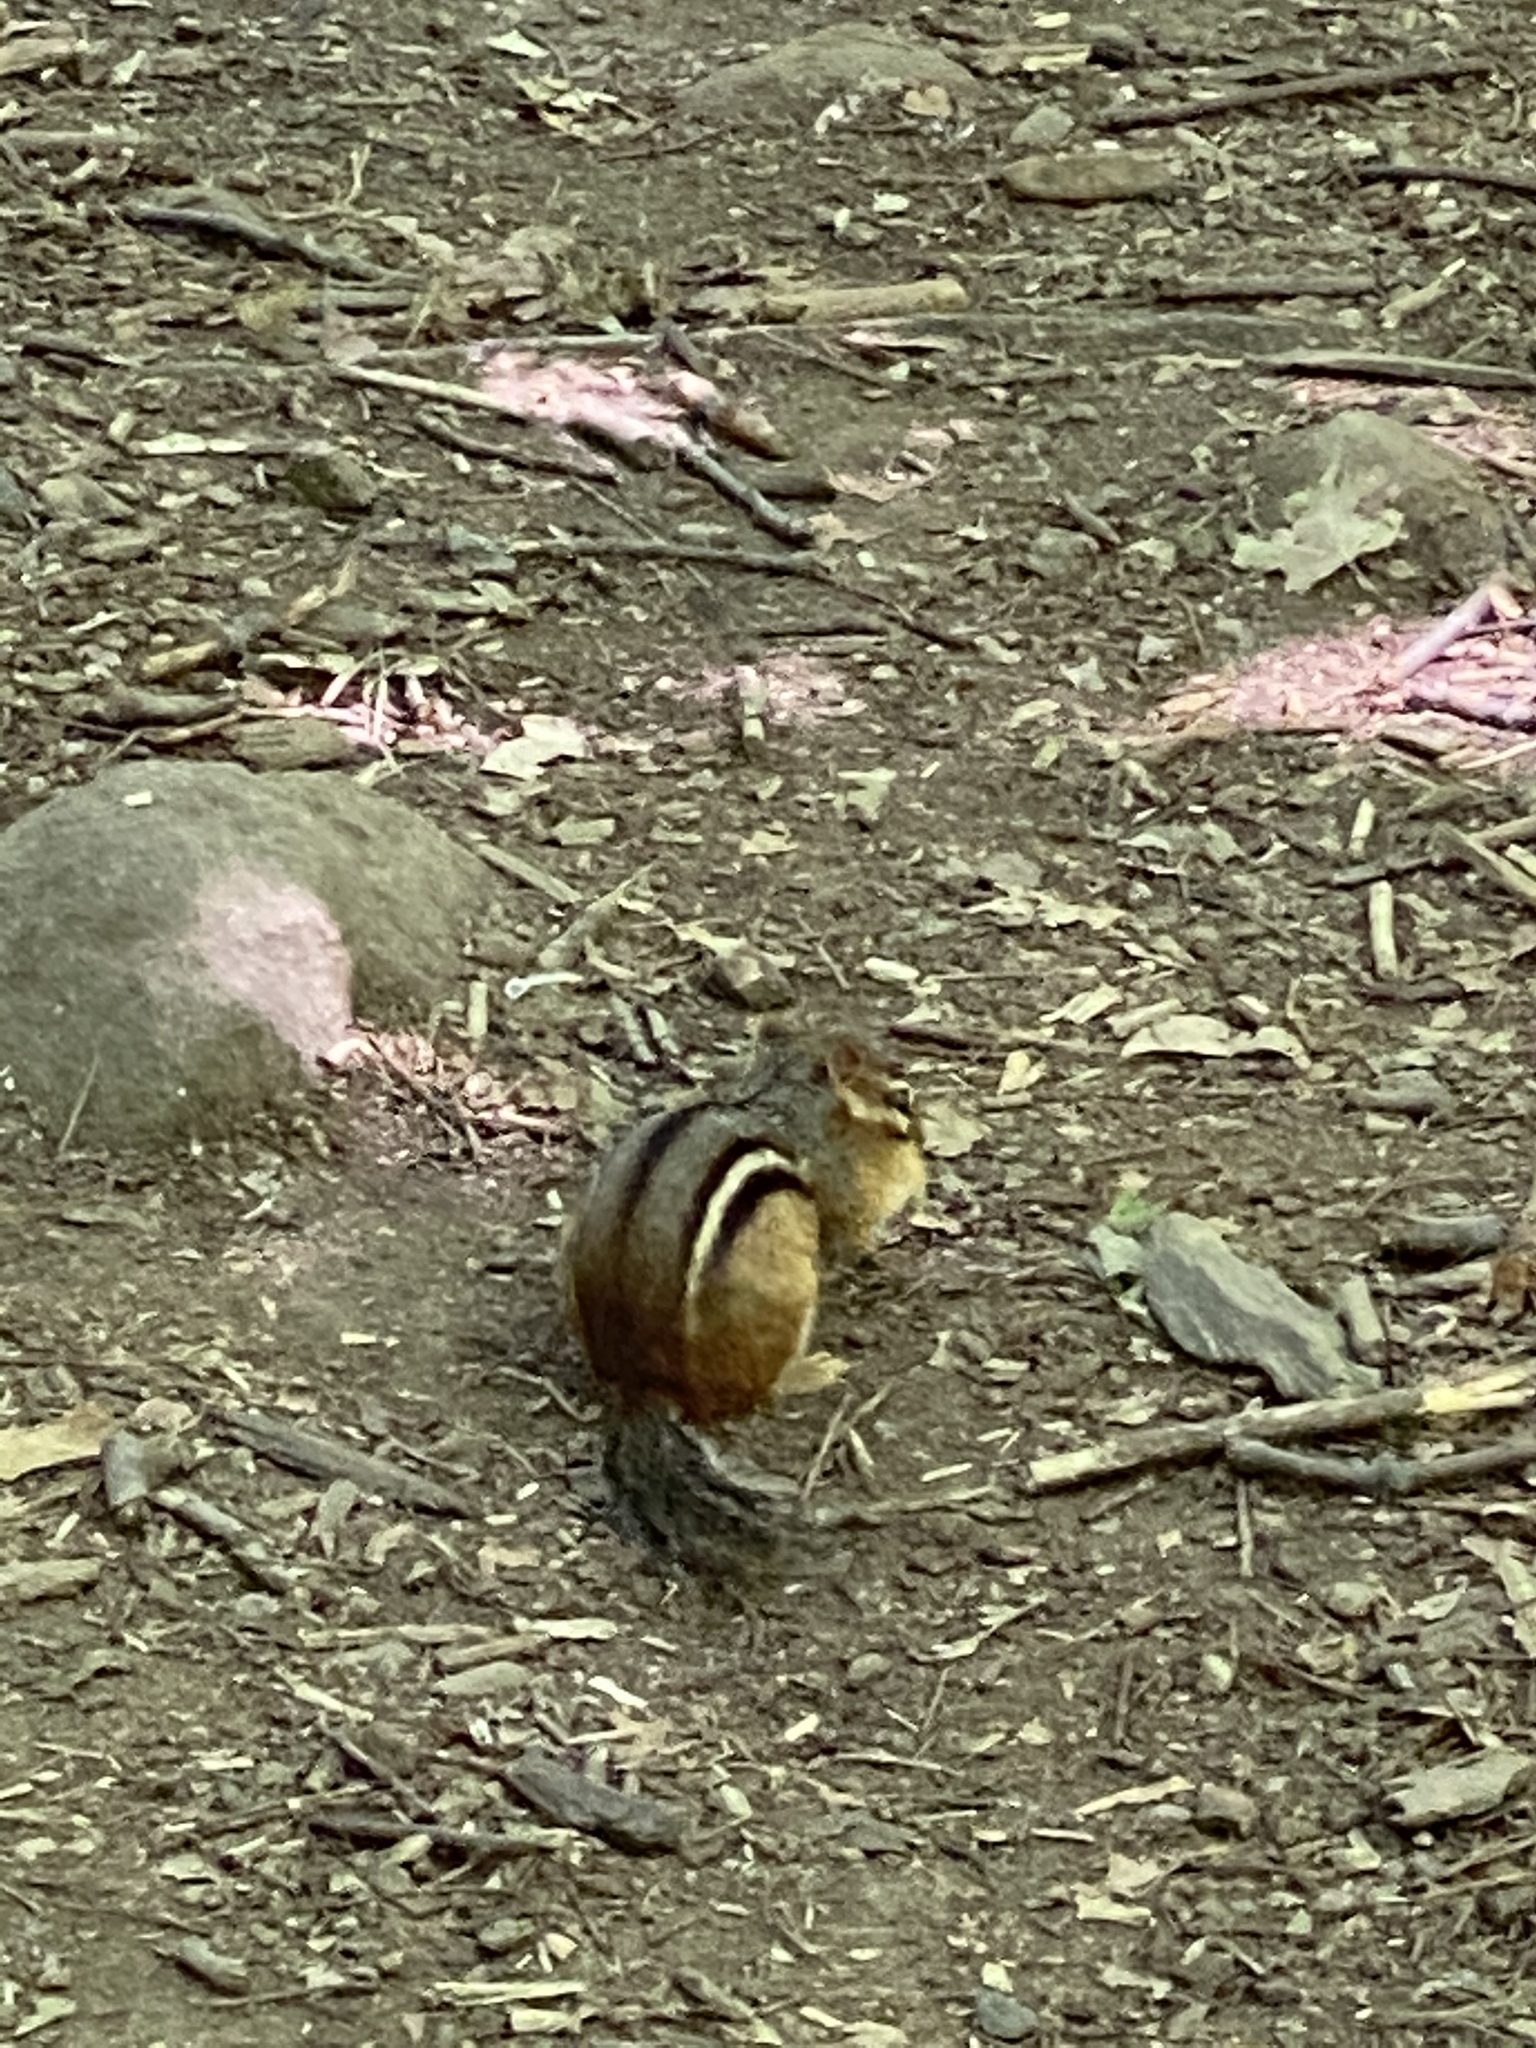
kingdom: Animalia
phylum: Chordata
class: Mammalia
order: Rodentia
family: Sciuridae
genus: Tamias
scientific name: Tamias striatus
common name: Eastern chipmunk
